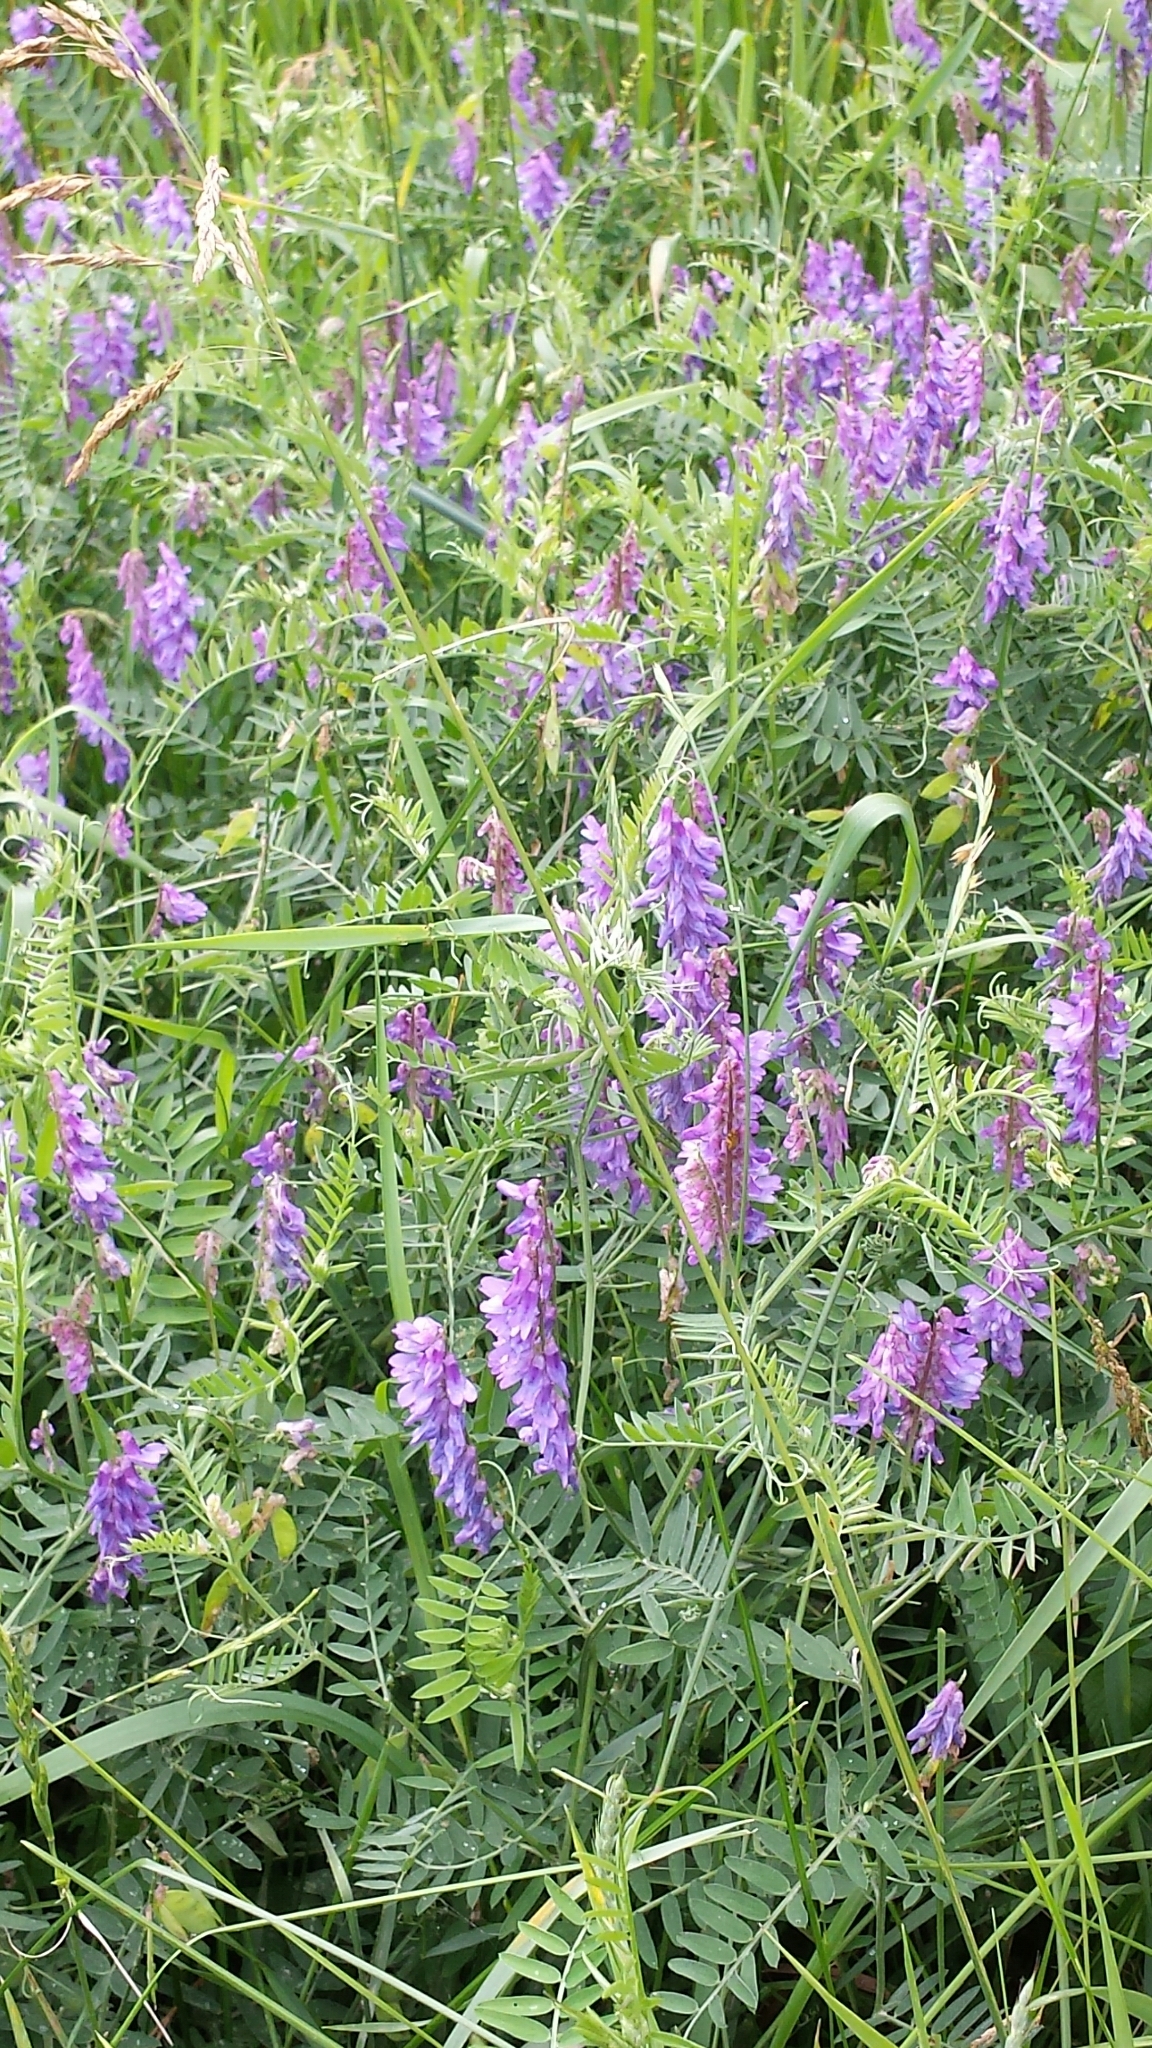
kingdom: Plantae
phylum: Tracheophyta
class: Magnoliopsida
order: Fabales
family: Fabaceae
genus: Vicia
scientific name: Vicia cracca
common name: Bird vetch
